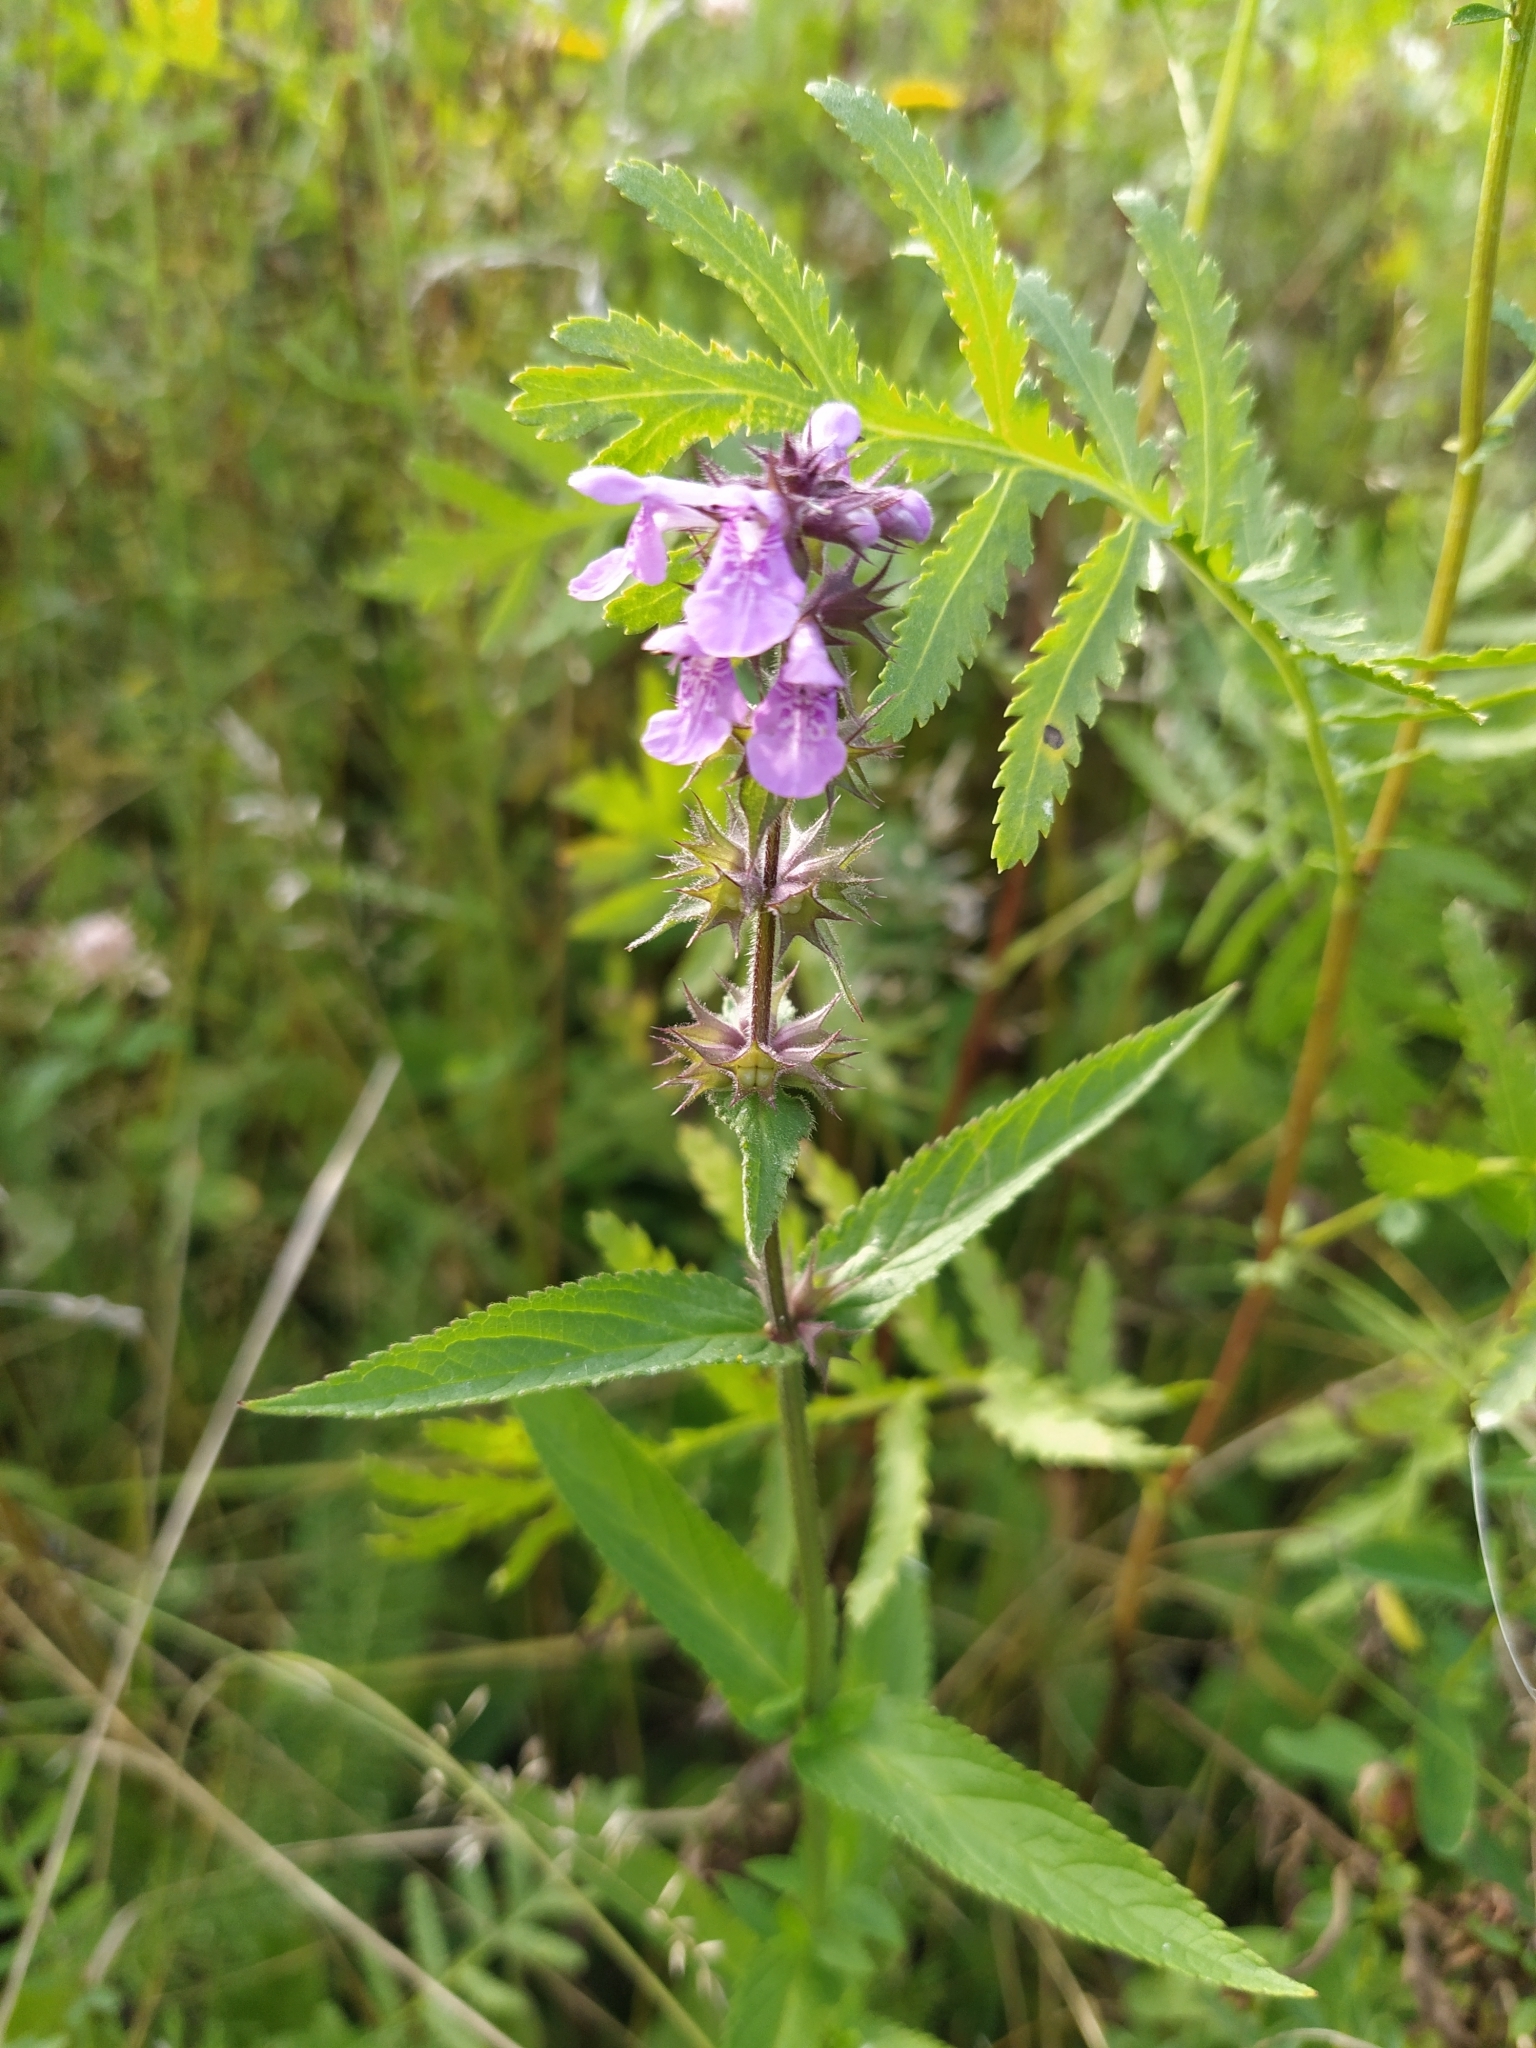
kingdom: Plantae
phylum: Tracheophyta
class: Magnoliopsida
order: Lamiales
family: Lamiaceae
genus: Stachys
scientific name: Stachys palustris
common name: Marsh woundwort
